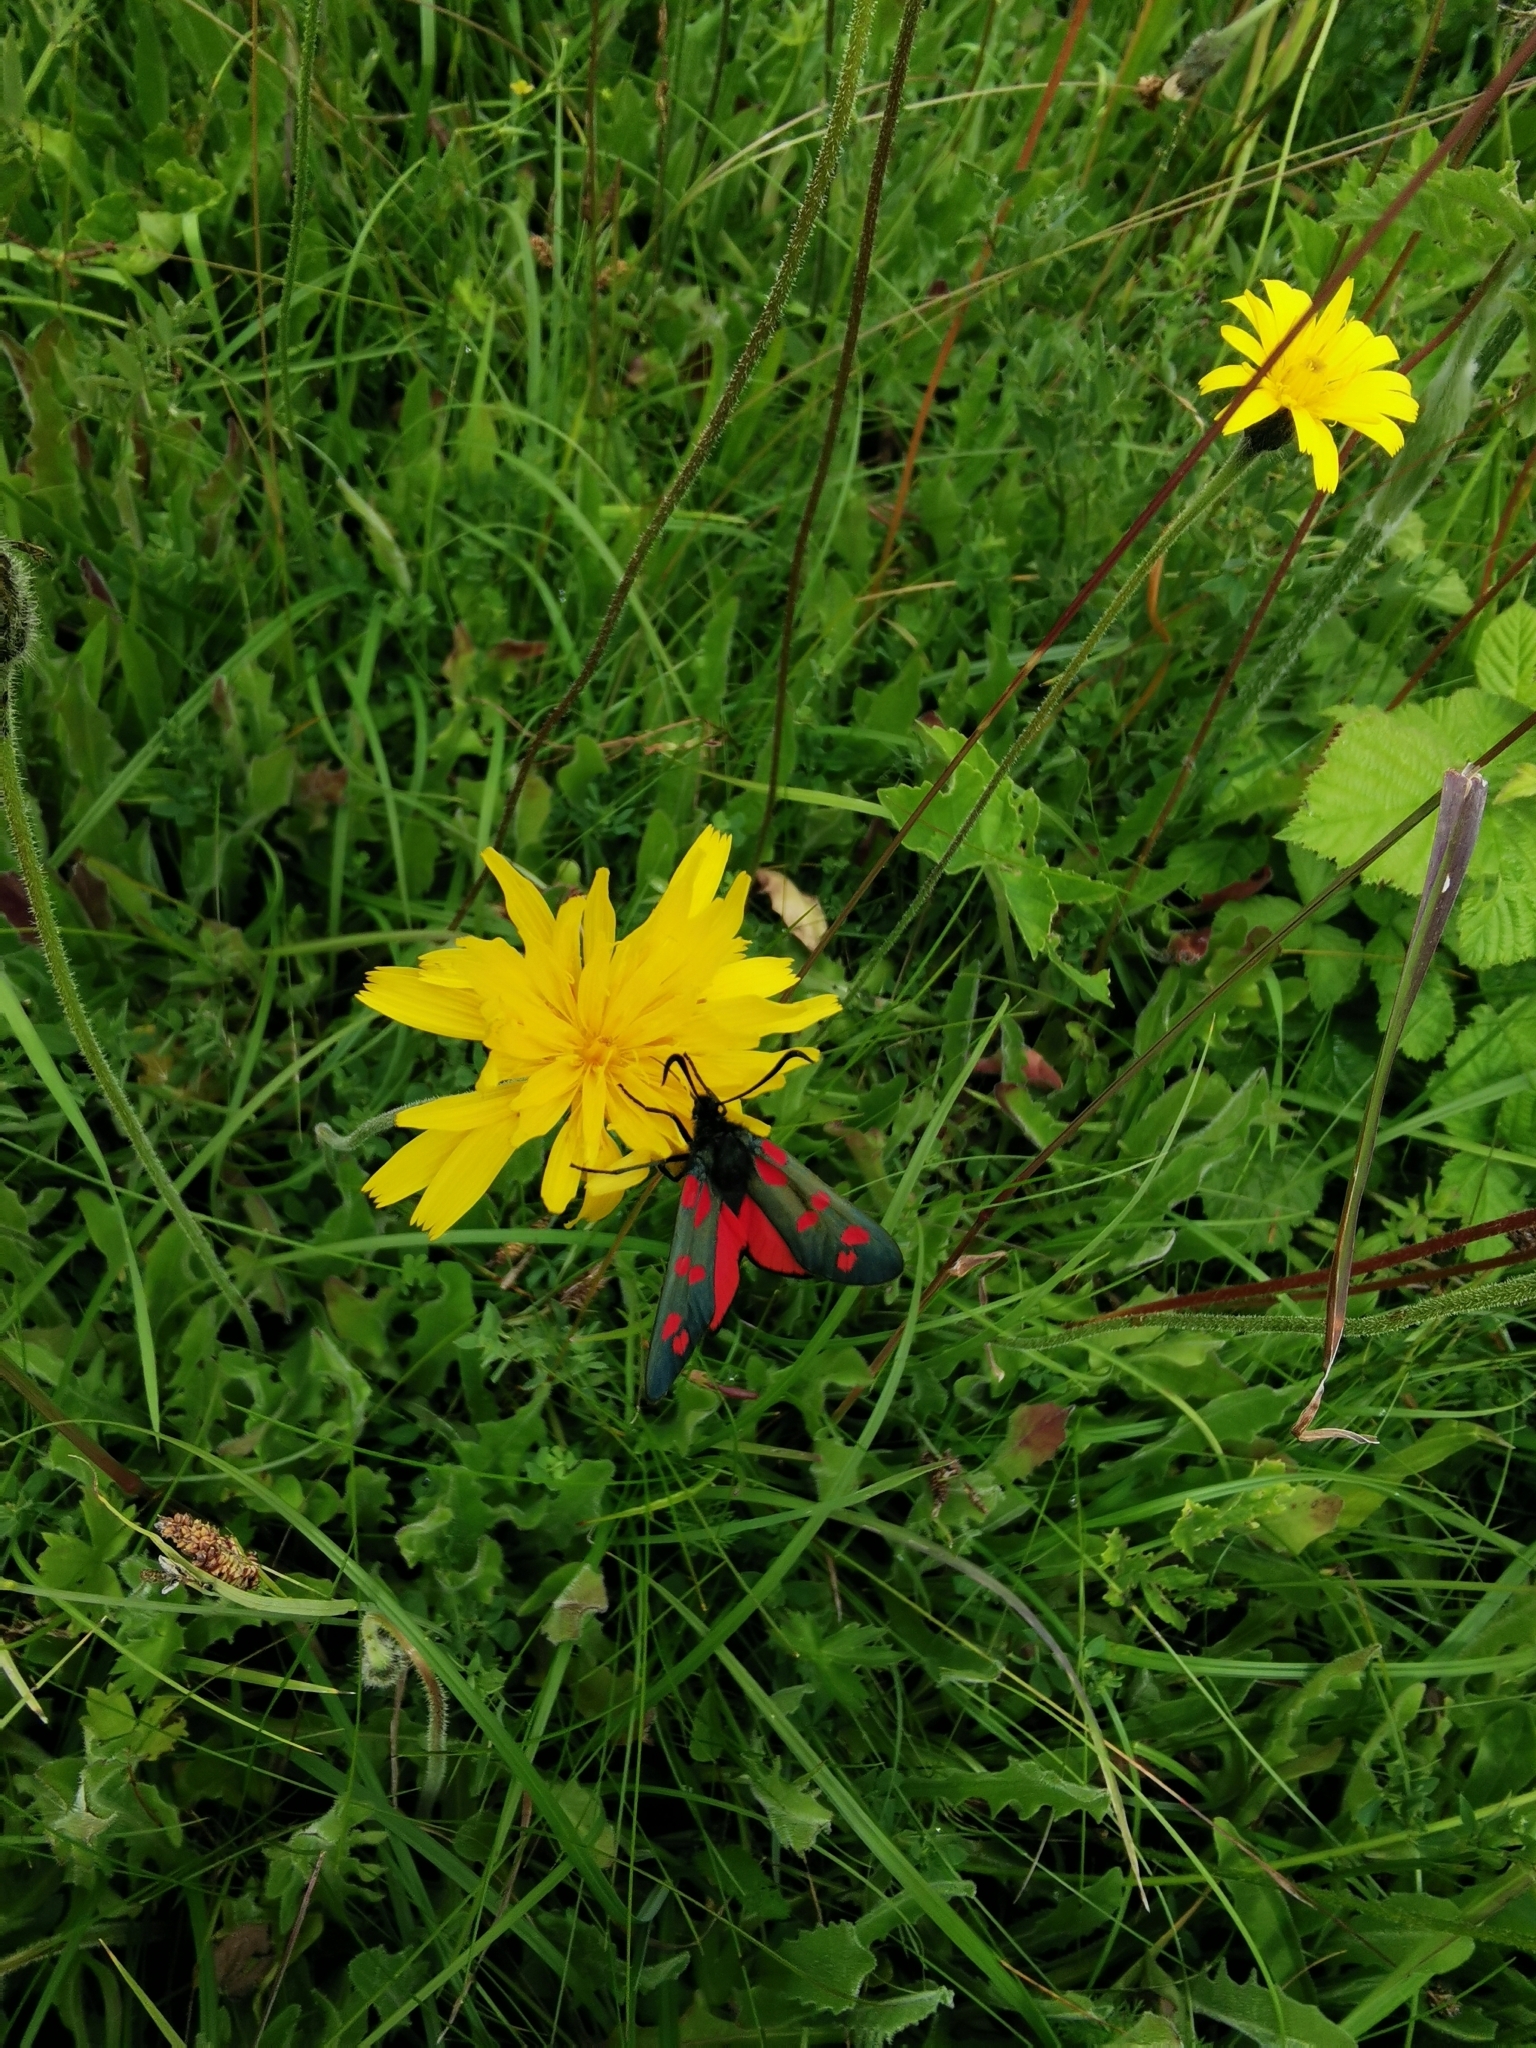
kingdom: Animalia
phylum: Arthropoda
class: Insecta
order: Lepidoptera
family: Zygaenidae
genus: Zygaena
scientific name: Zygaena filipendulae
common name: Six-spot burnet
